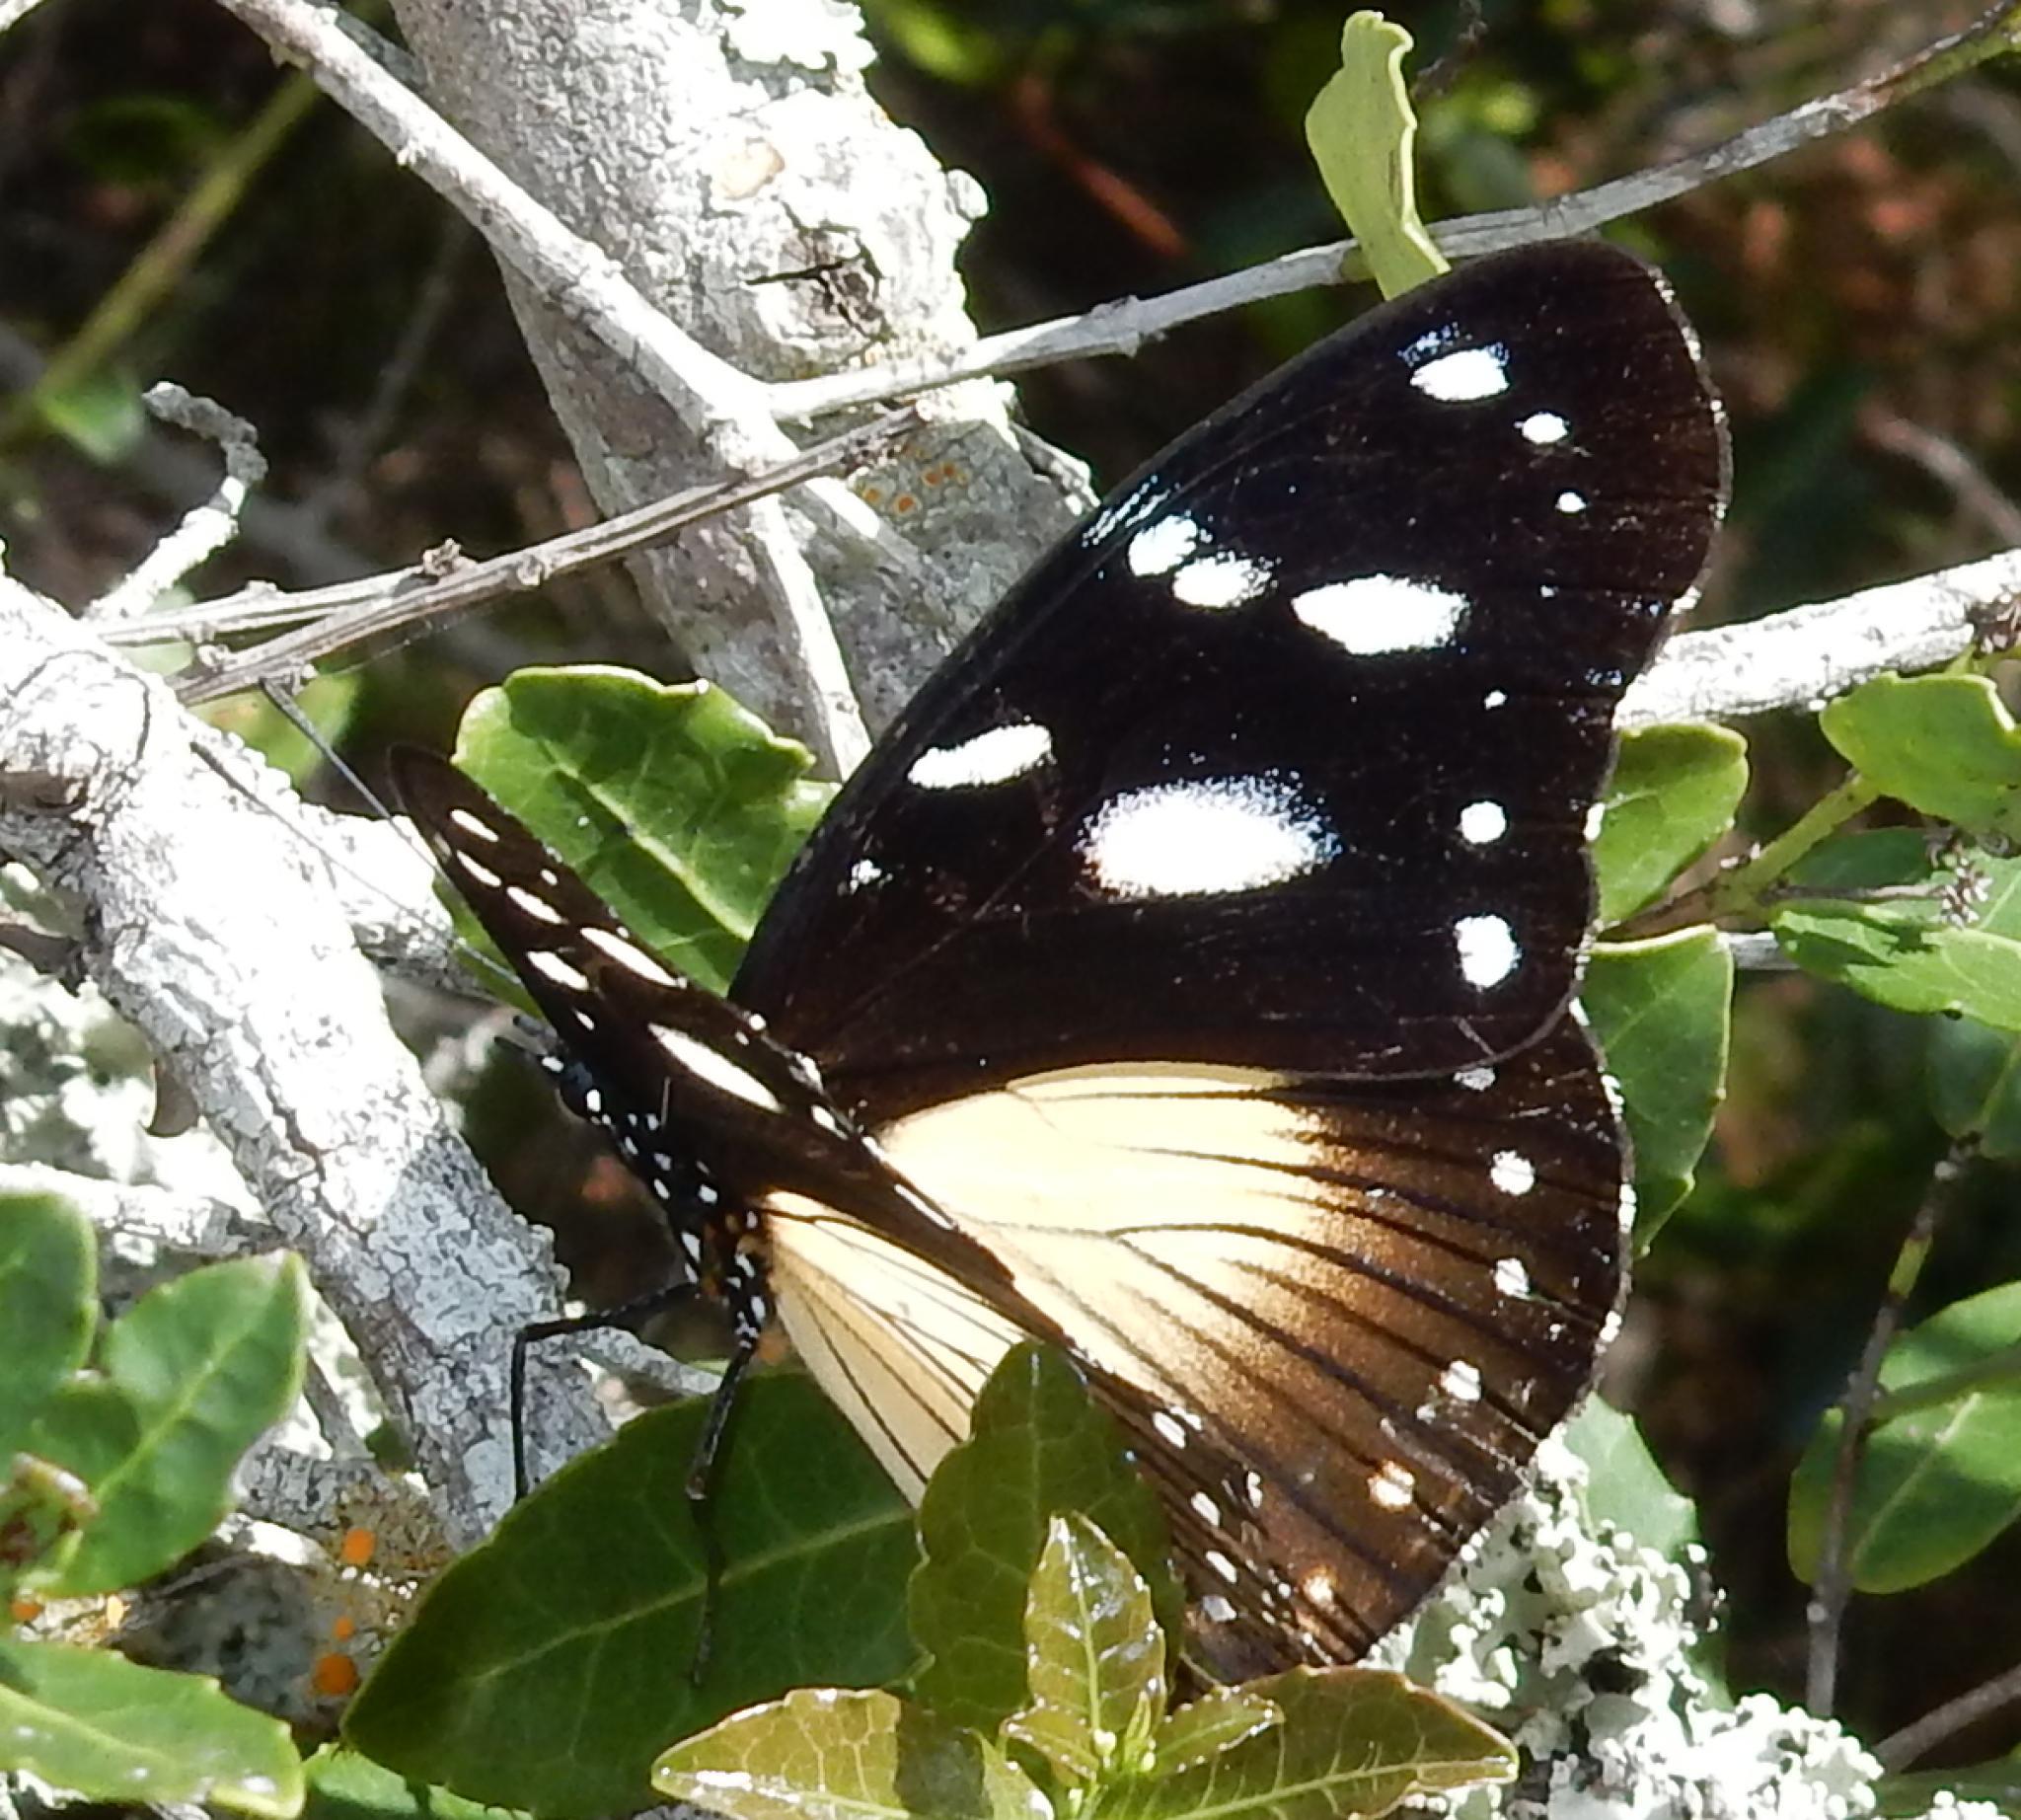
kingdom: Animalia
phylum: Arthropoda
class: Insecta
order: Lepidoptera
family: Nymphalidae
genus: Hypolimnas
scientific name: Hypolimnas dubius
